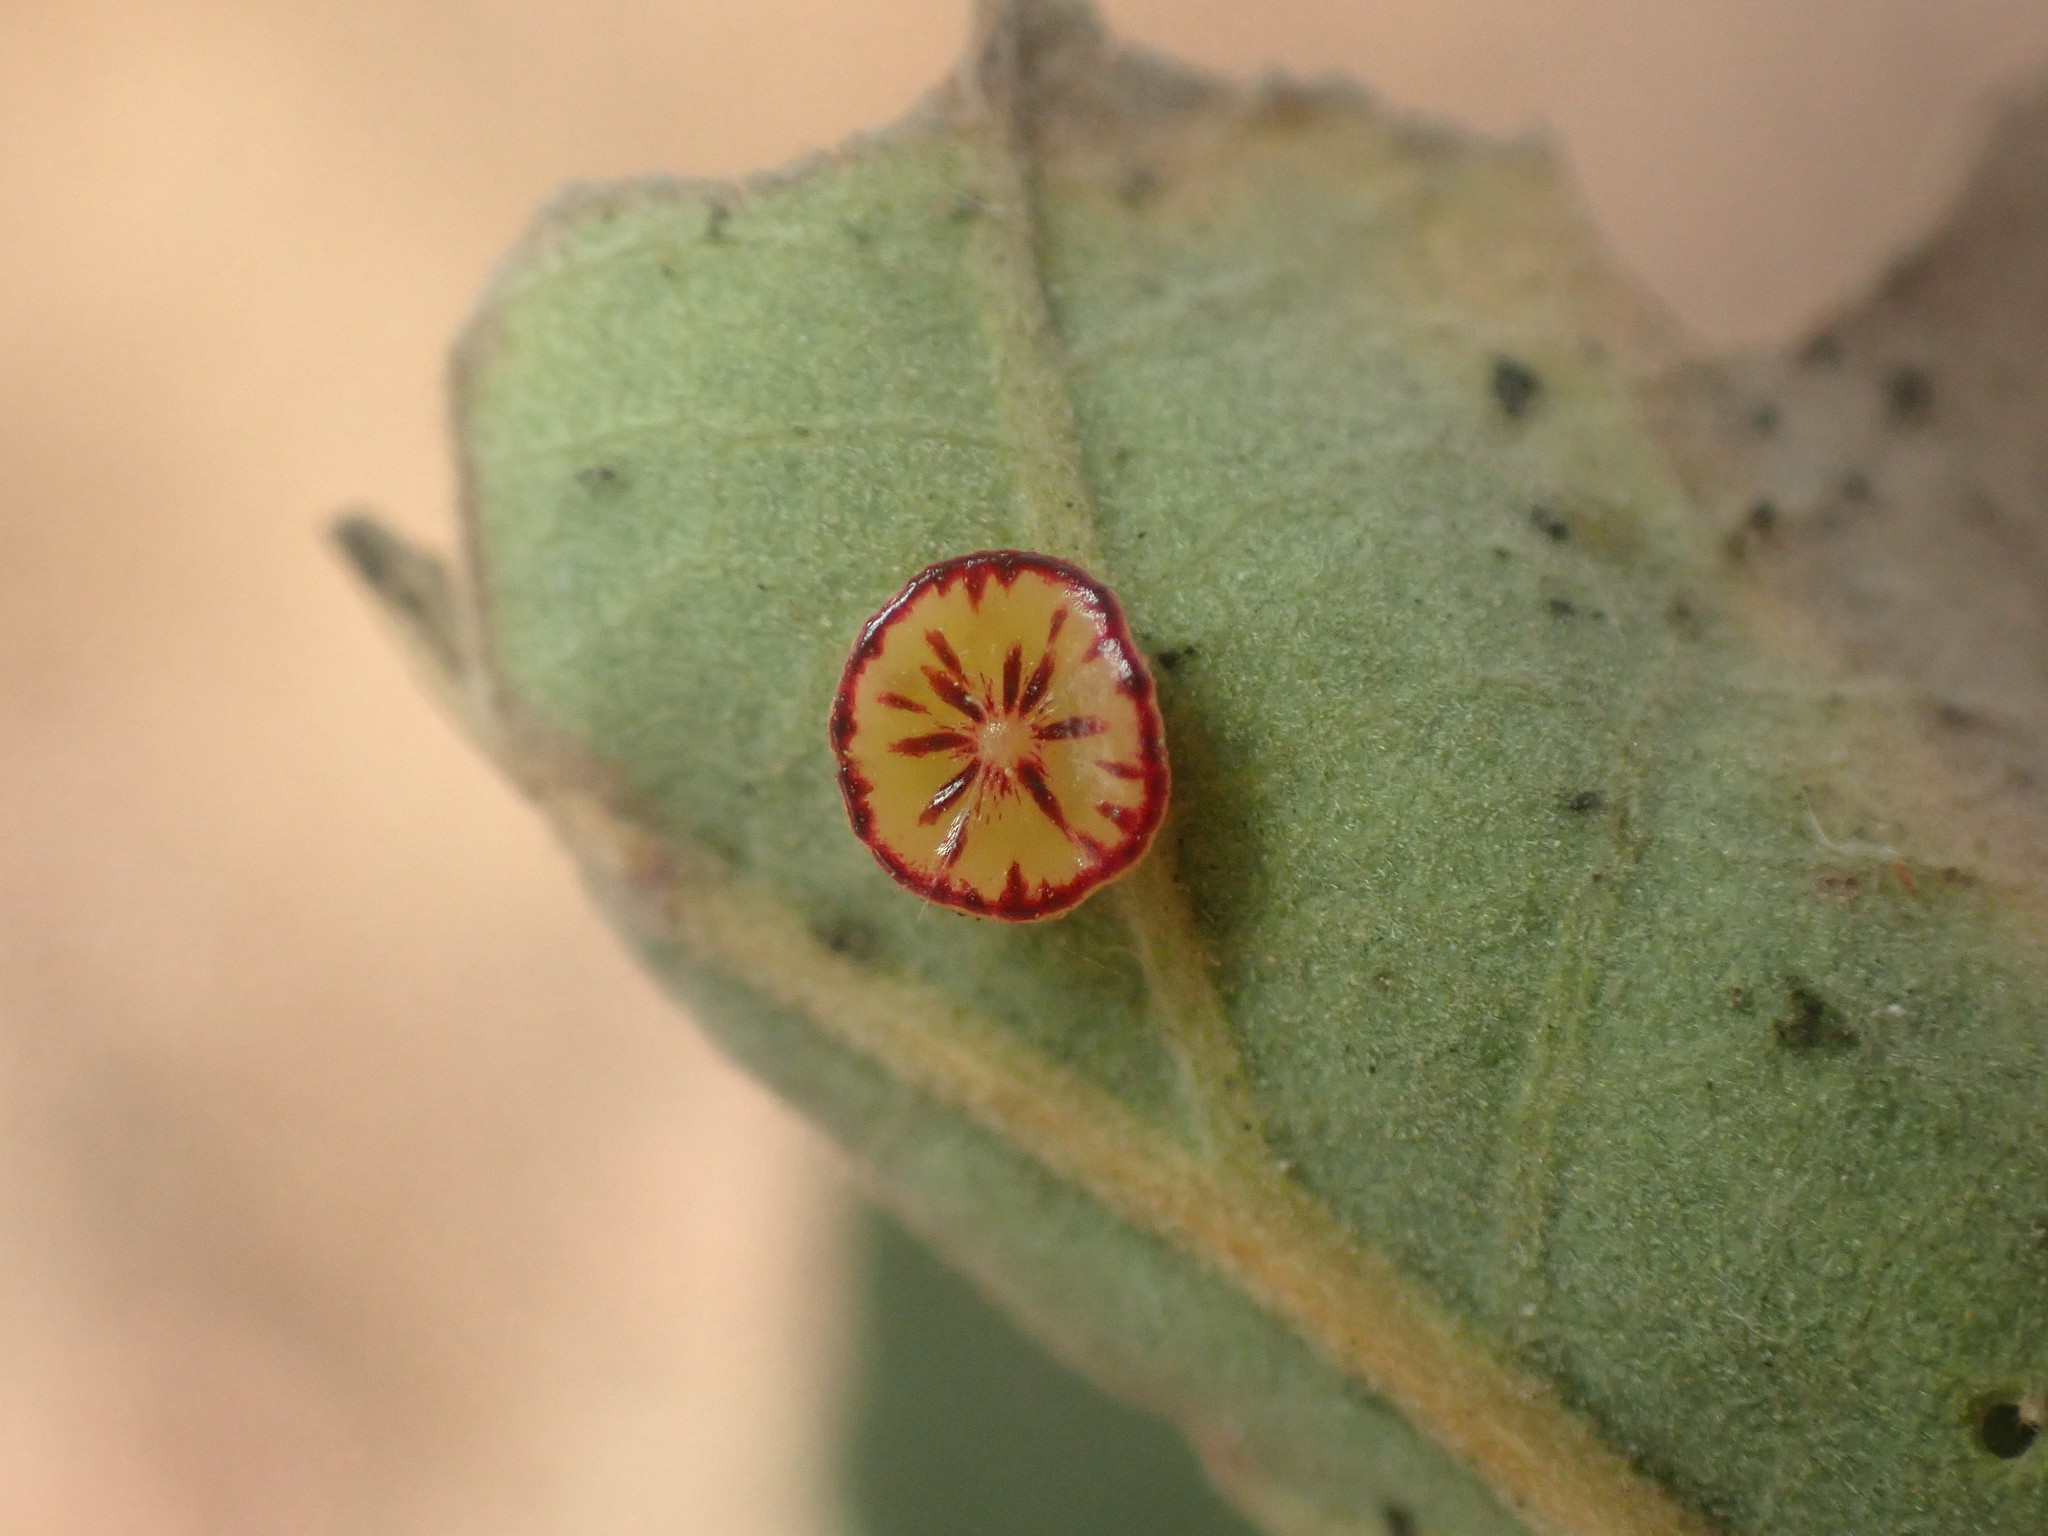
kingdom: Animalia
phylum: Arthropoda
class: Insecta
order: Hymenoptera
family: Cynipidae
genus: Andricus
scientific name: Andricus
